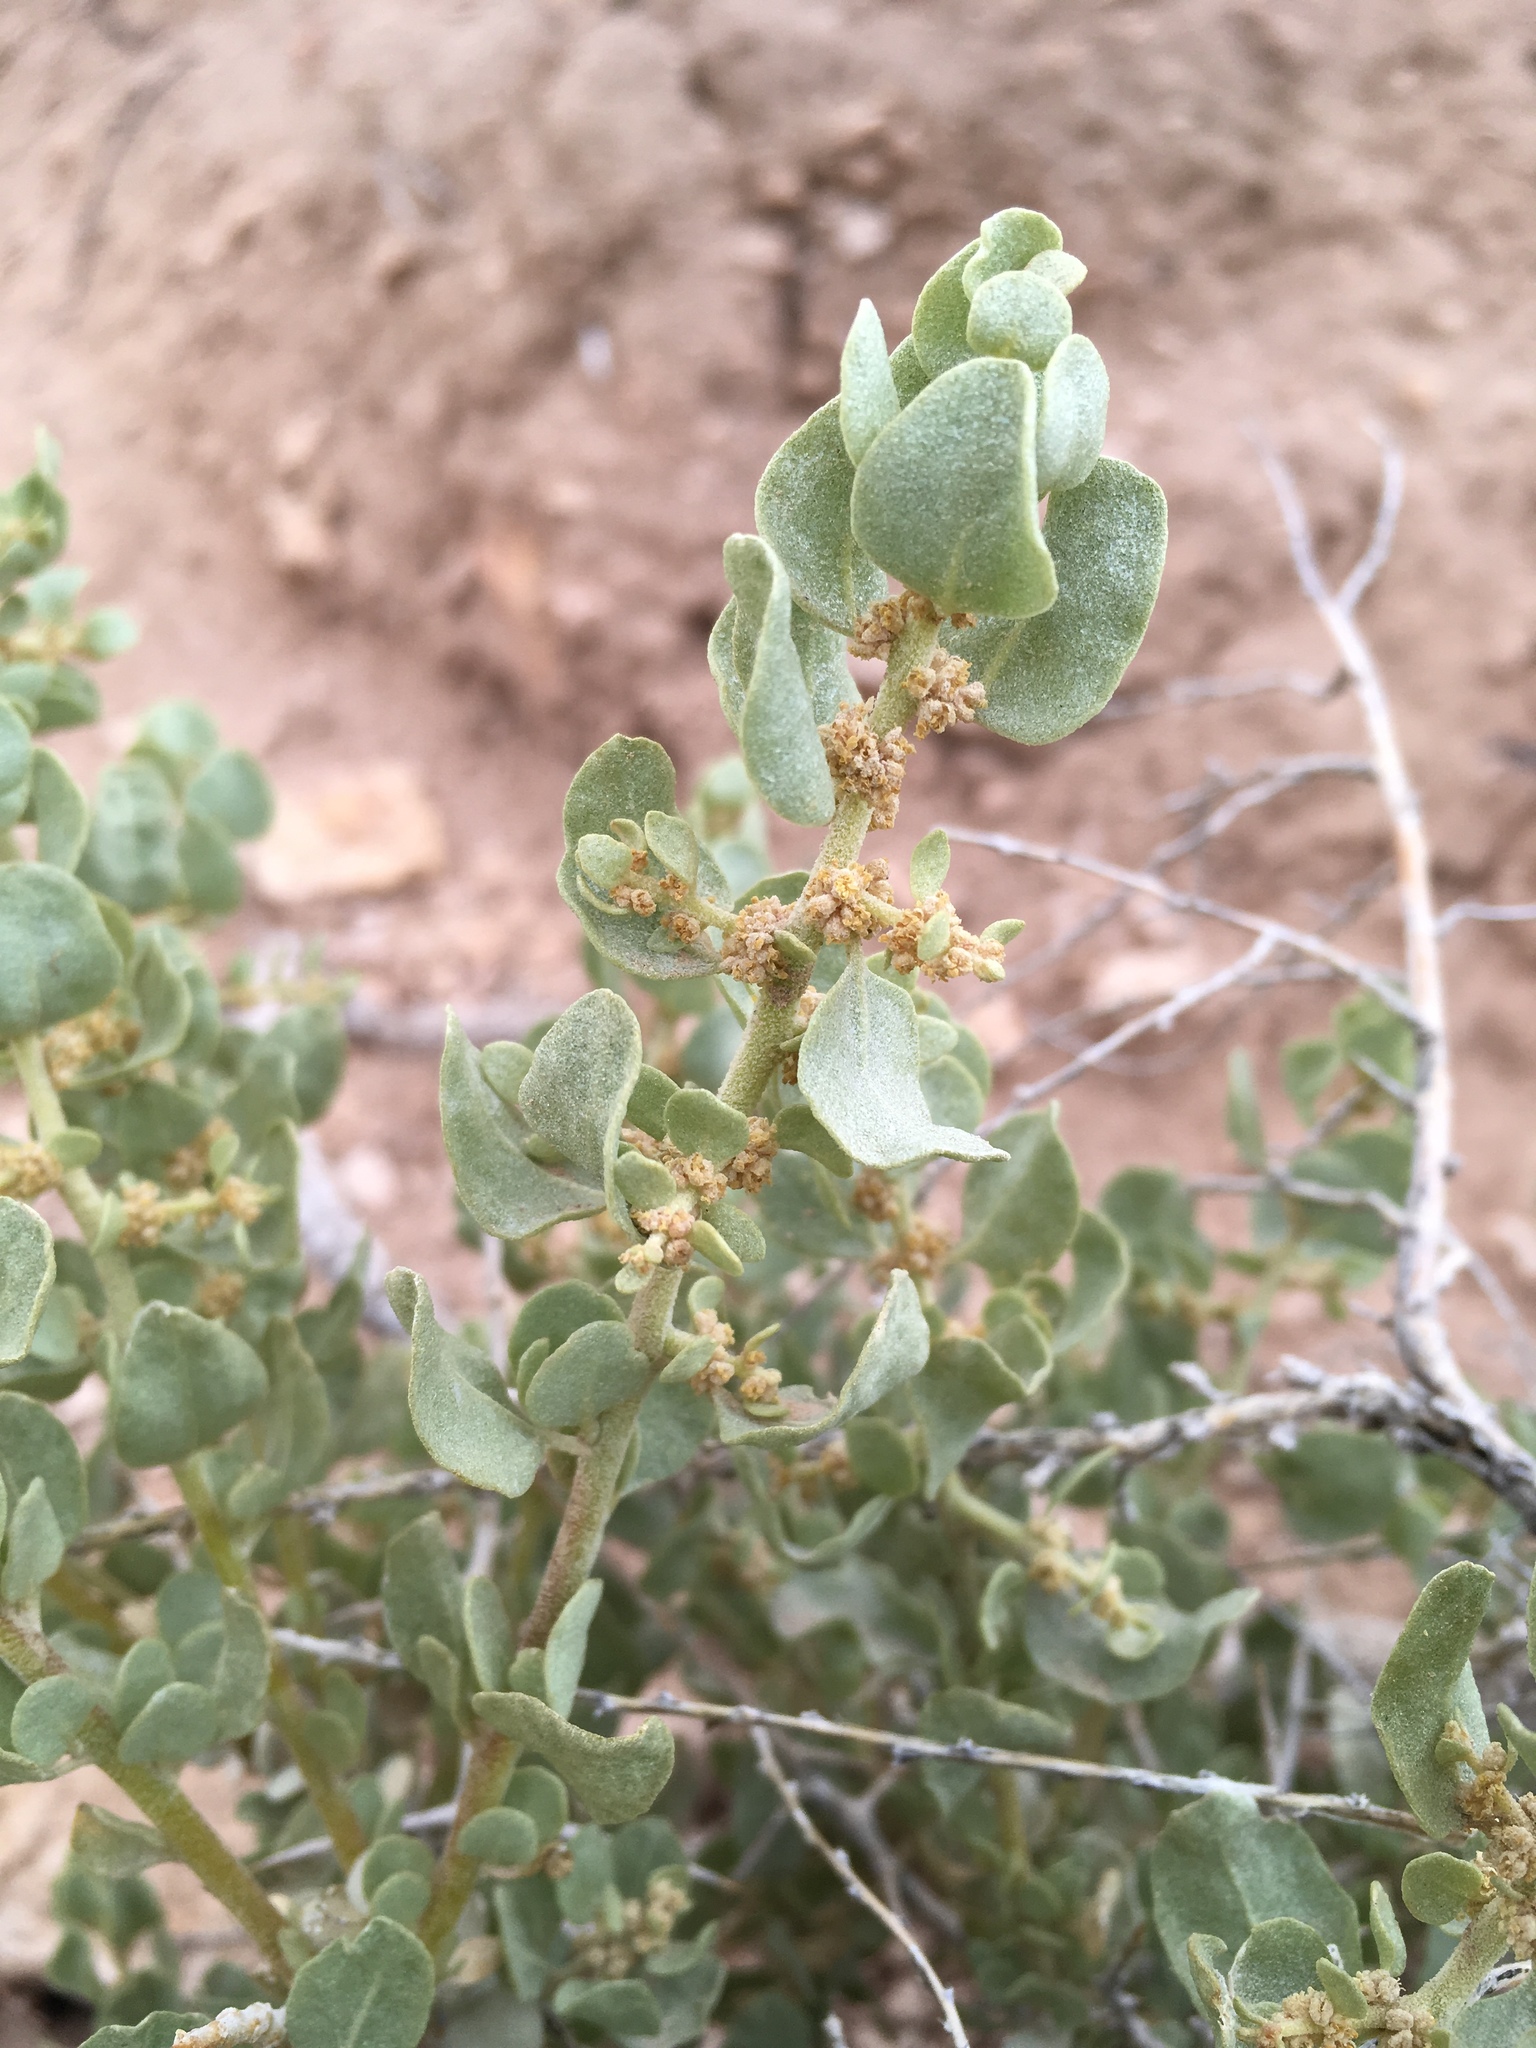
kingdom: Plantae
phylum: Tracheophyta
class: Magnoliopsida
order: Caryophyllales
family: Amaranthaceae
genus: Atriplex
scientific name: Atriplex confertifolia
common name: Shadscale
